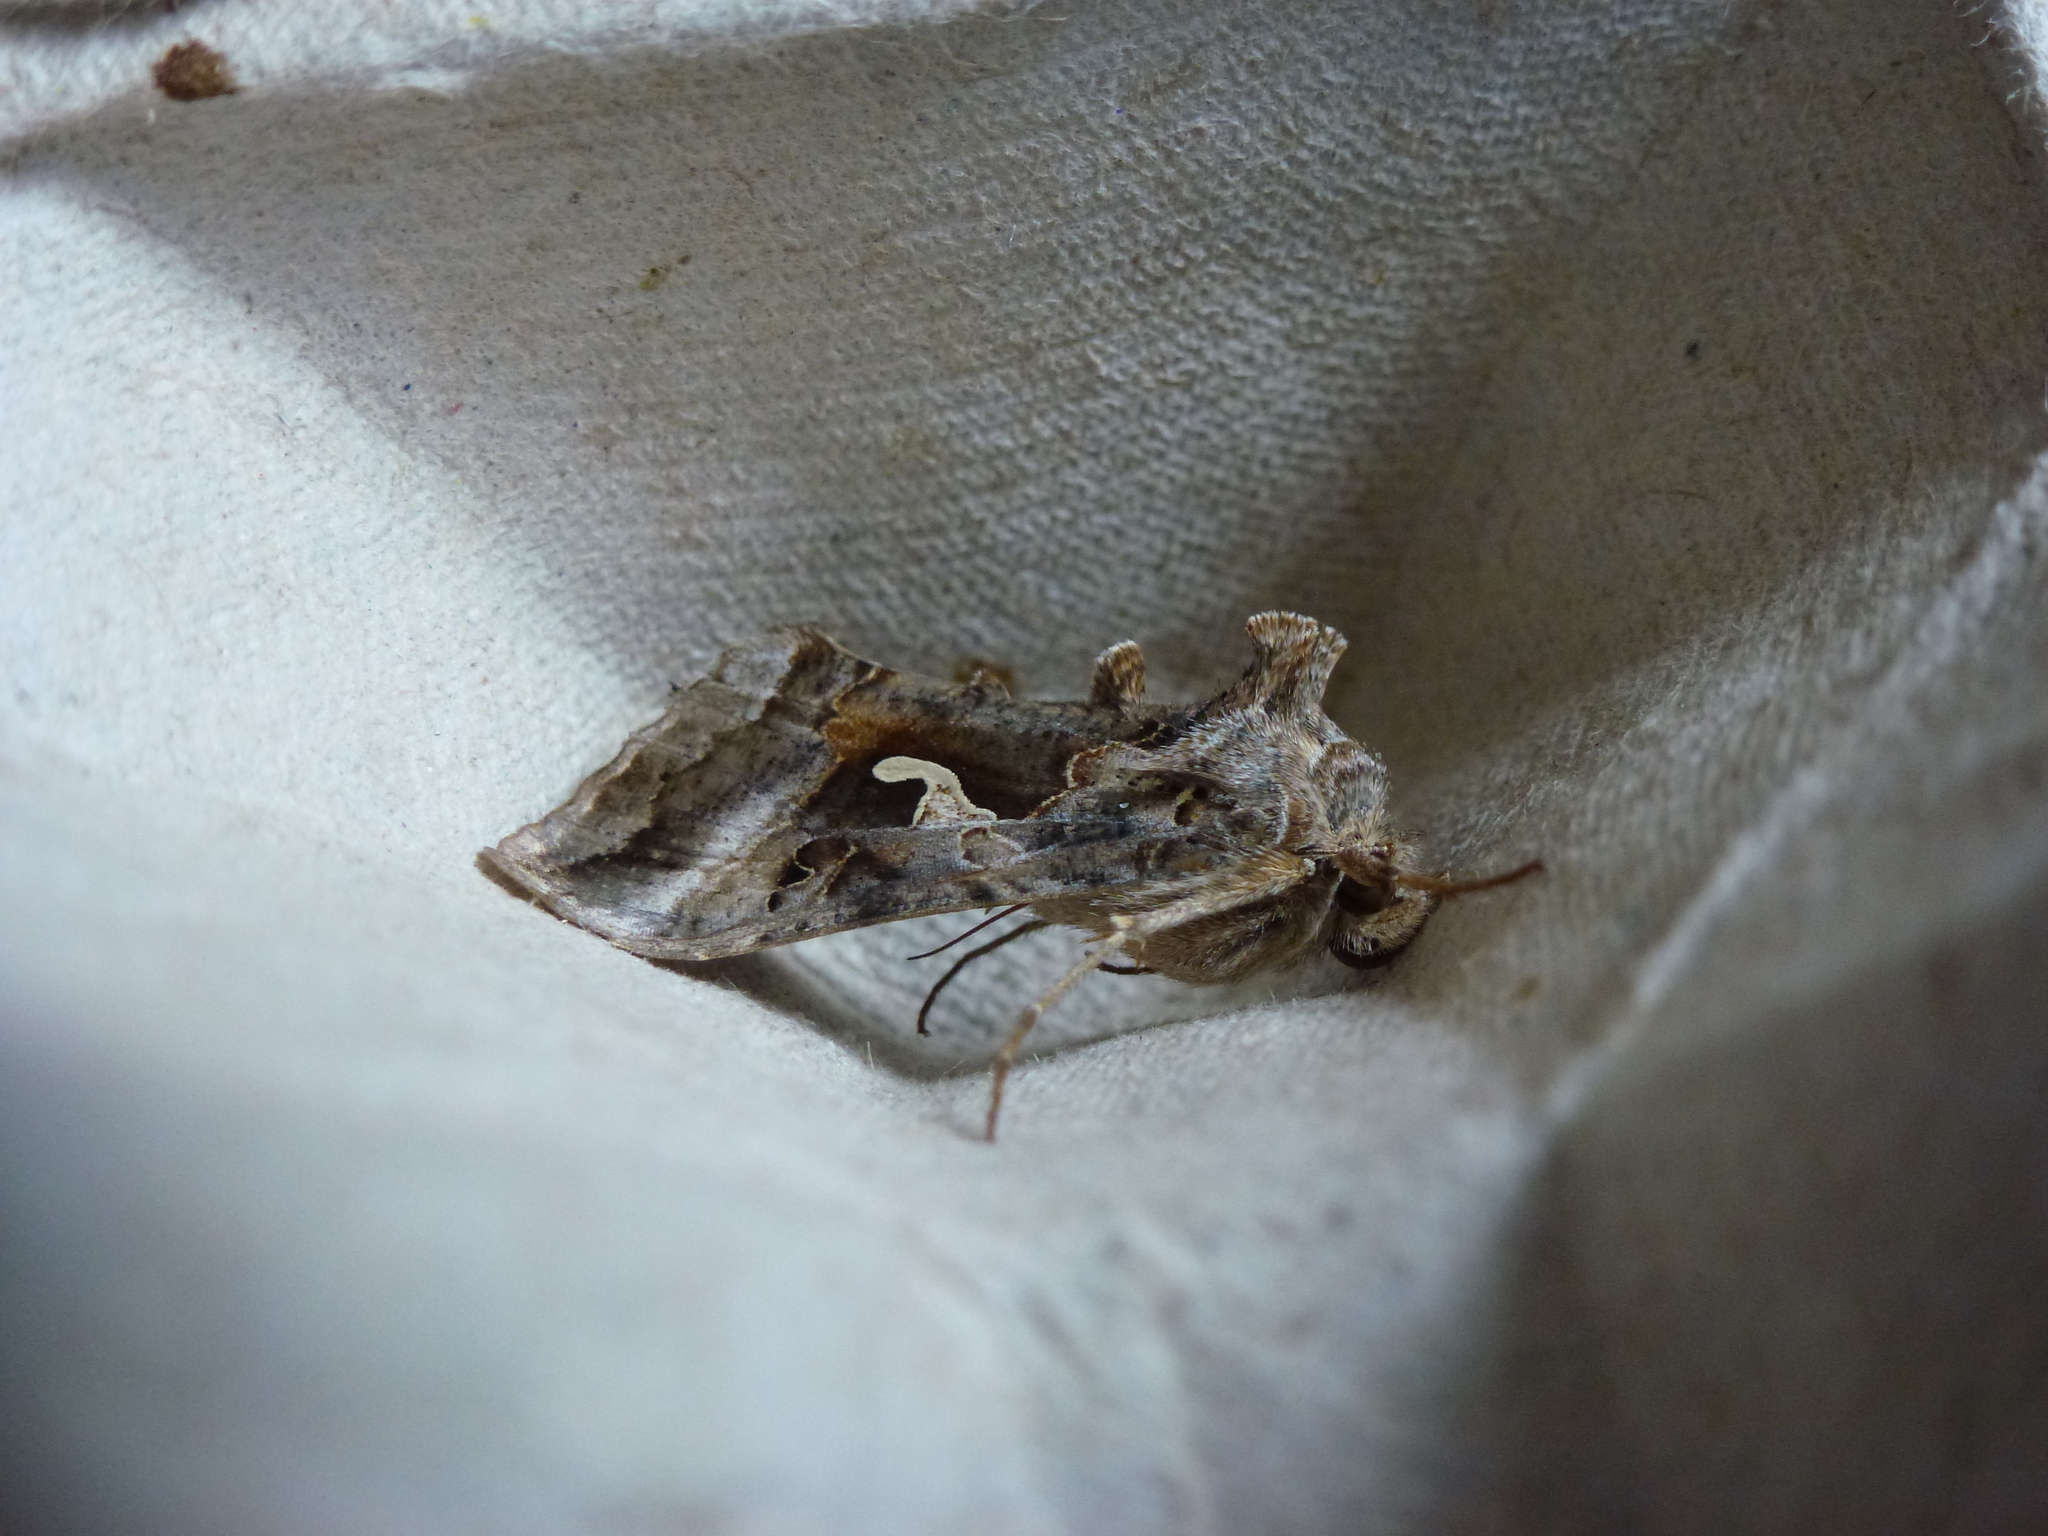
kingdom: Animalia
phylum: Arthropoda
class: Insecta
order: Lepidoptera
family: Noctuidae
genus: Autographa
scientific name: Autographa gamma
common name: Silver y
